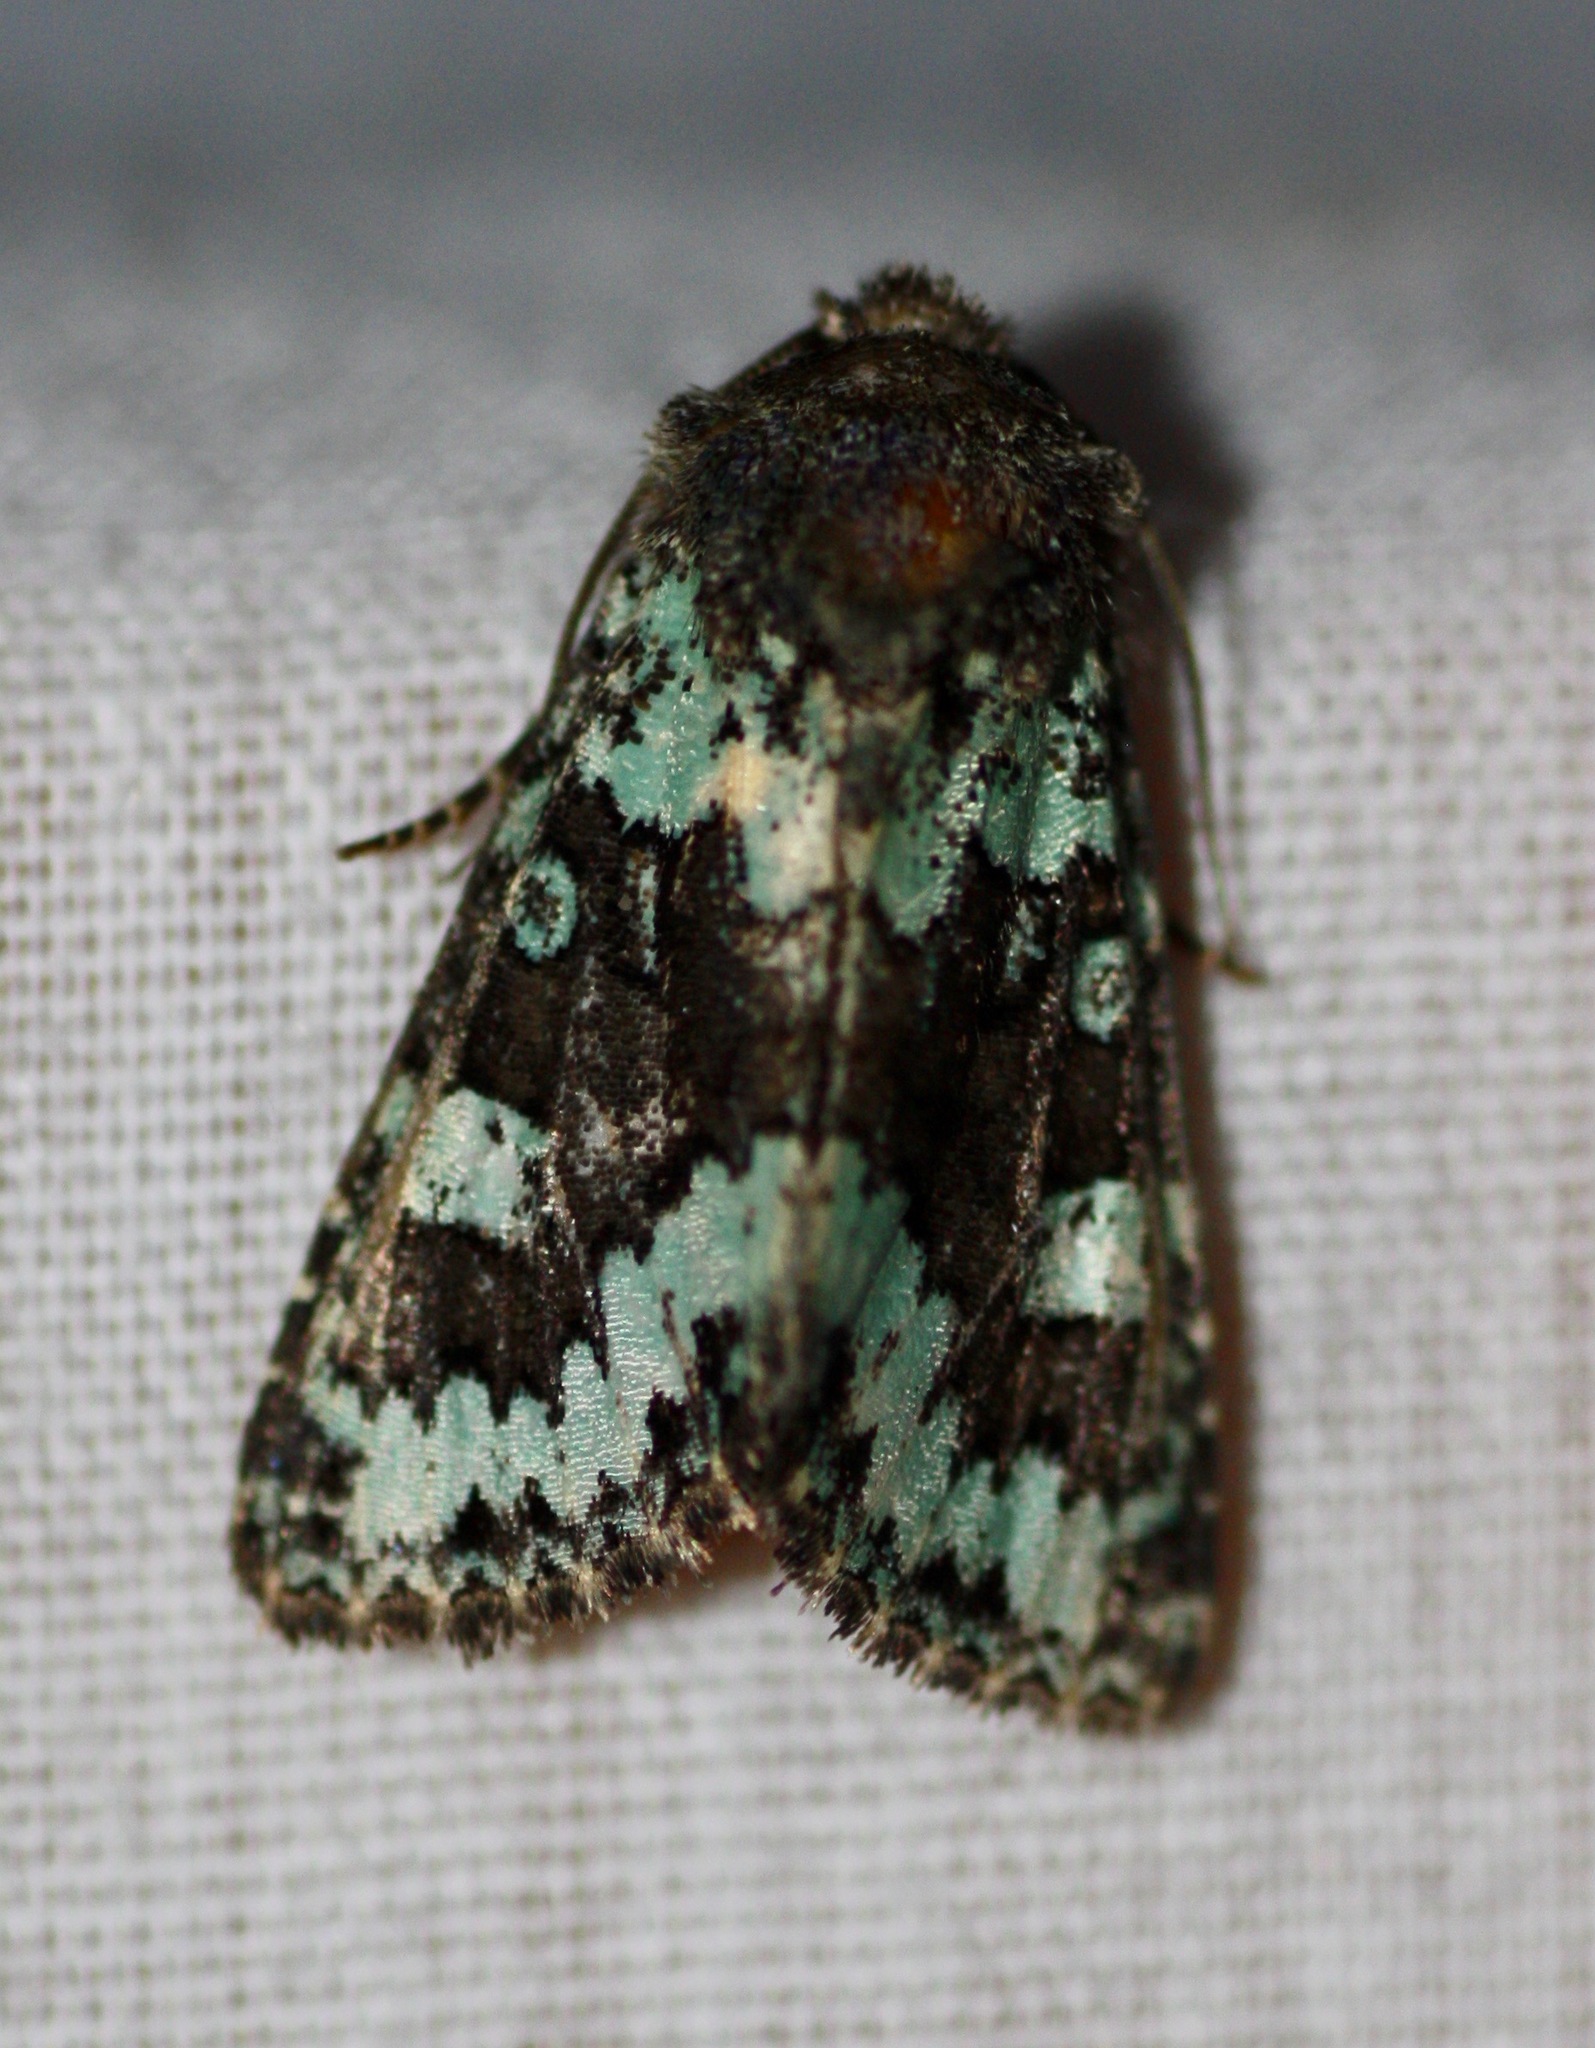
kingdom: Animalia
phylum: Arthropoda
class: Insecta
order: Lepidoptera
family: Noctuidae
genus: Paramiana
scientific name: Paramiana perissa
